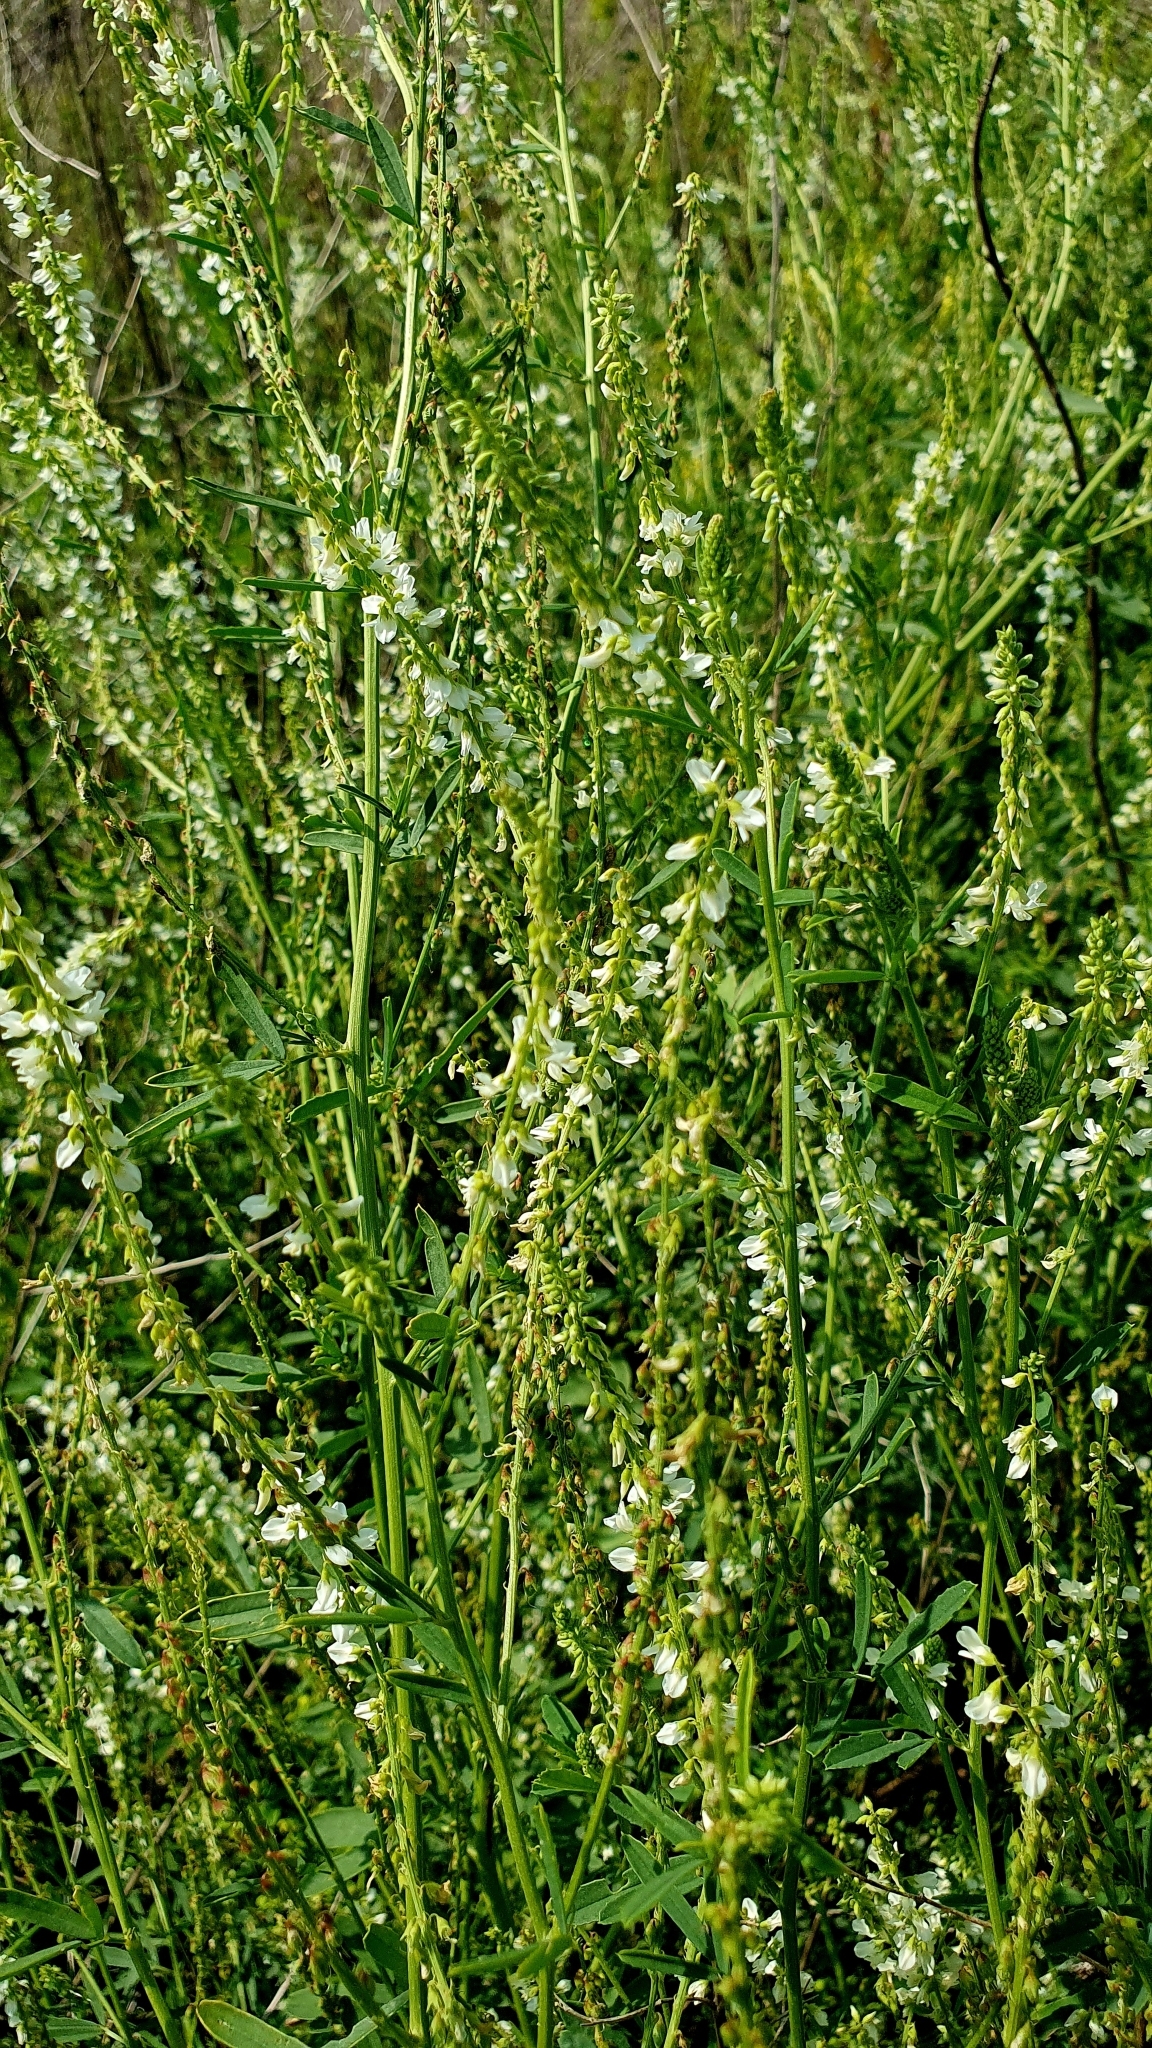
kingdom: Plantae
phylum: Tracheophyta
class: Magnoliopsida
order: Fabales
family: Fabaceae
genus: Melilotus
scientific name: Melilotus albus
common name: White melilot
